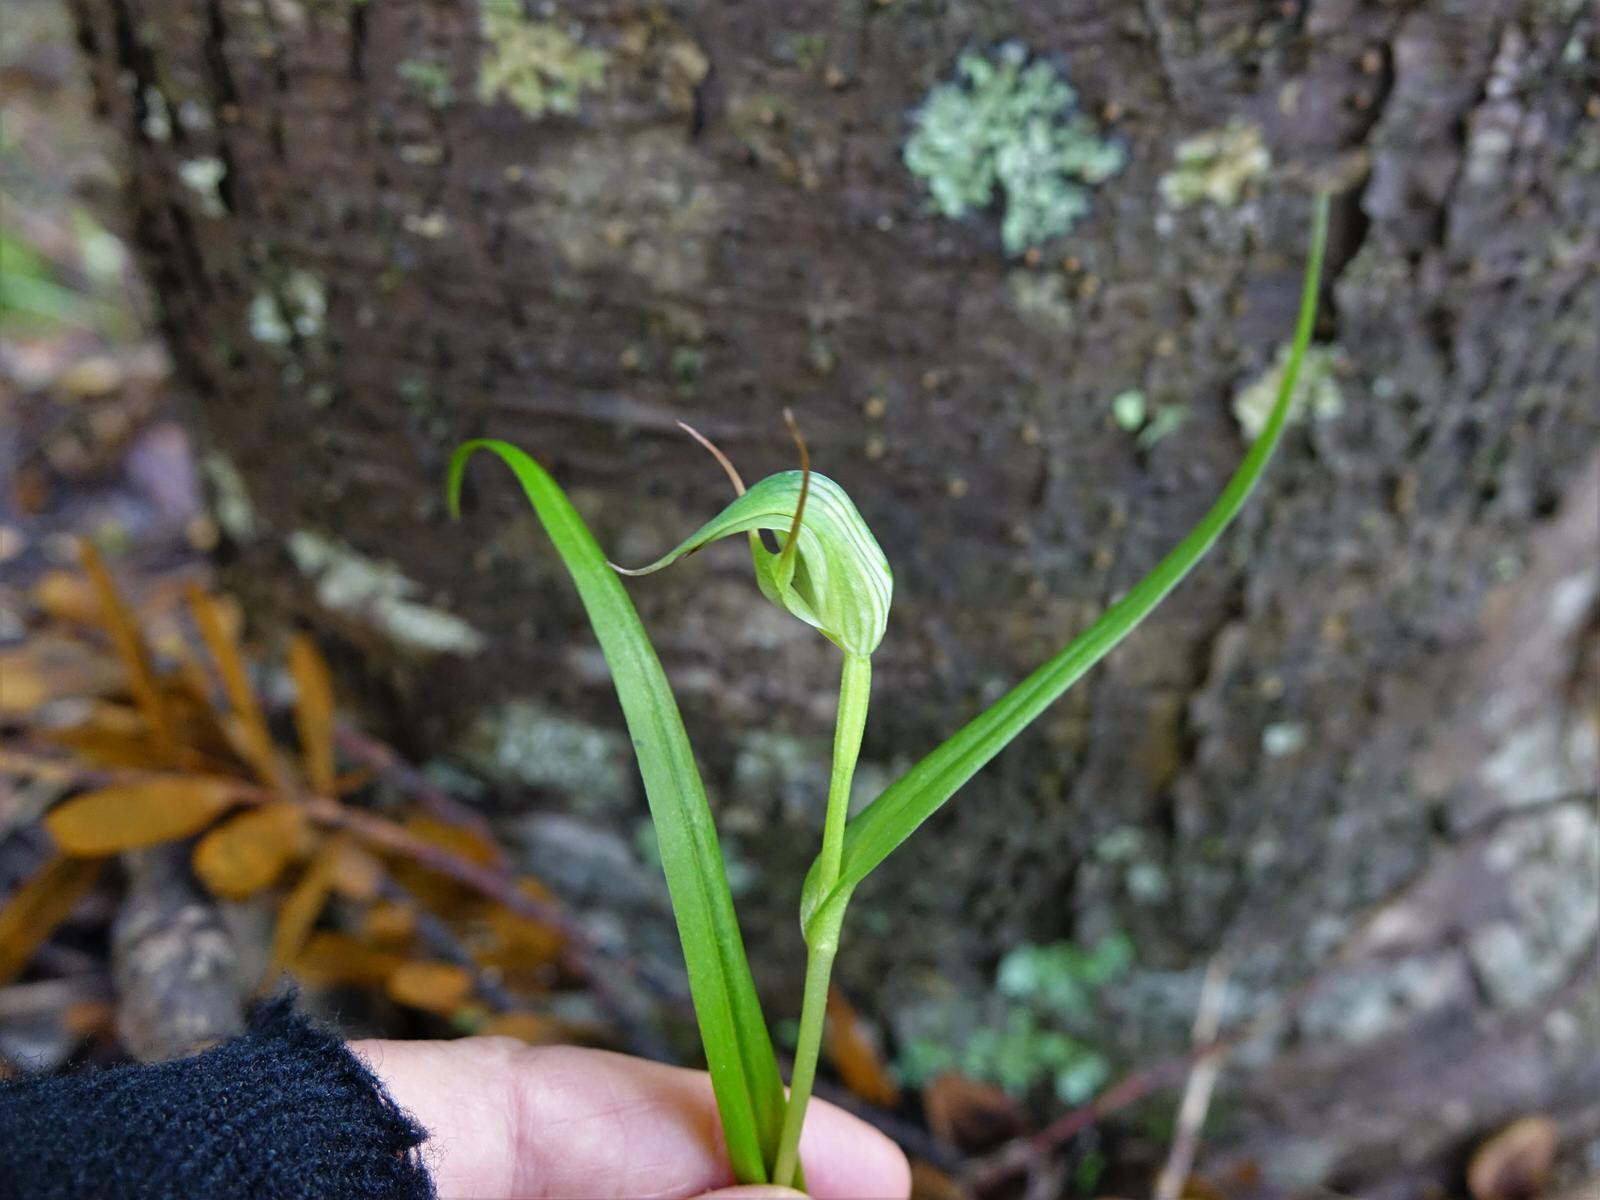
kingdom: Plantae
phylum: Tracheophyta
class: Liliopsida
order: Asparagales
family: Orchidaceae
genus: Pterostylis
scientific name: Pterostylis agathicola
